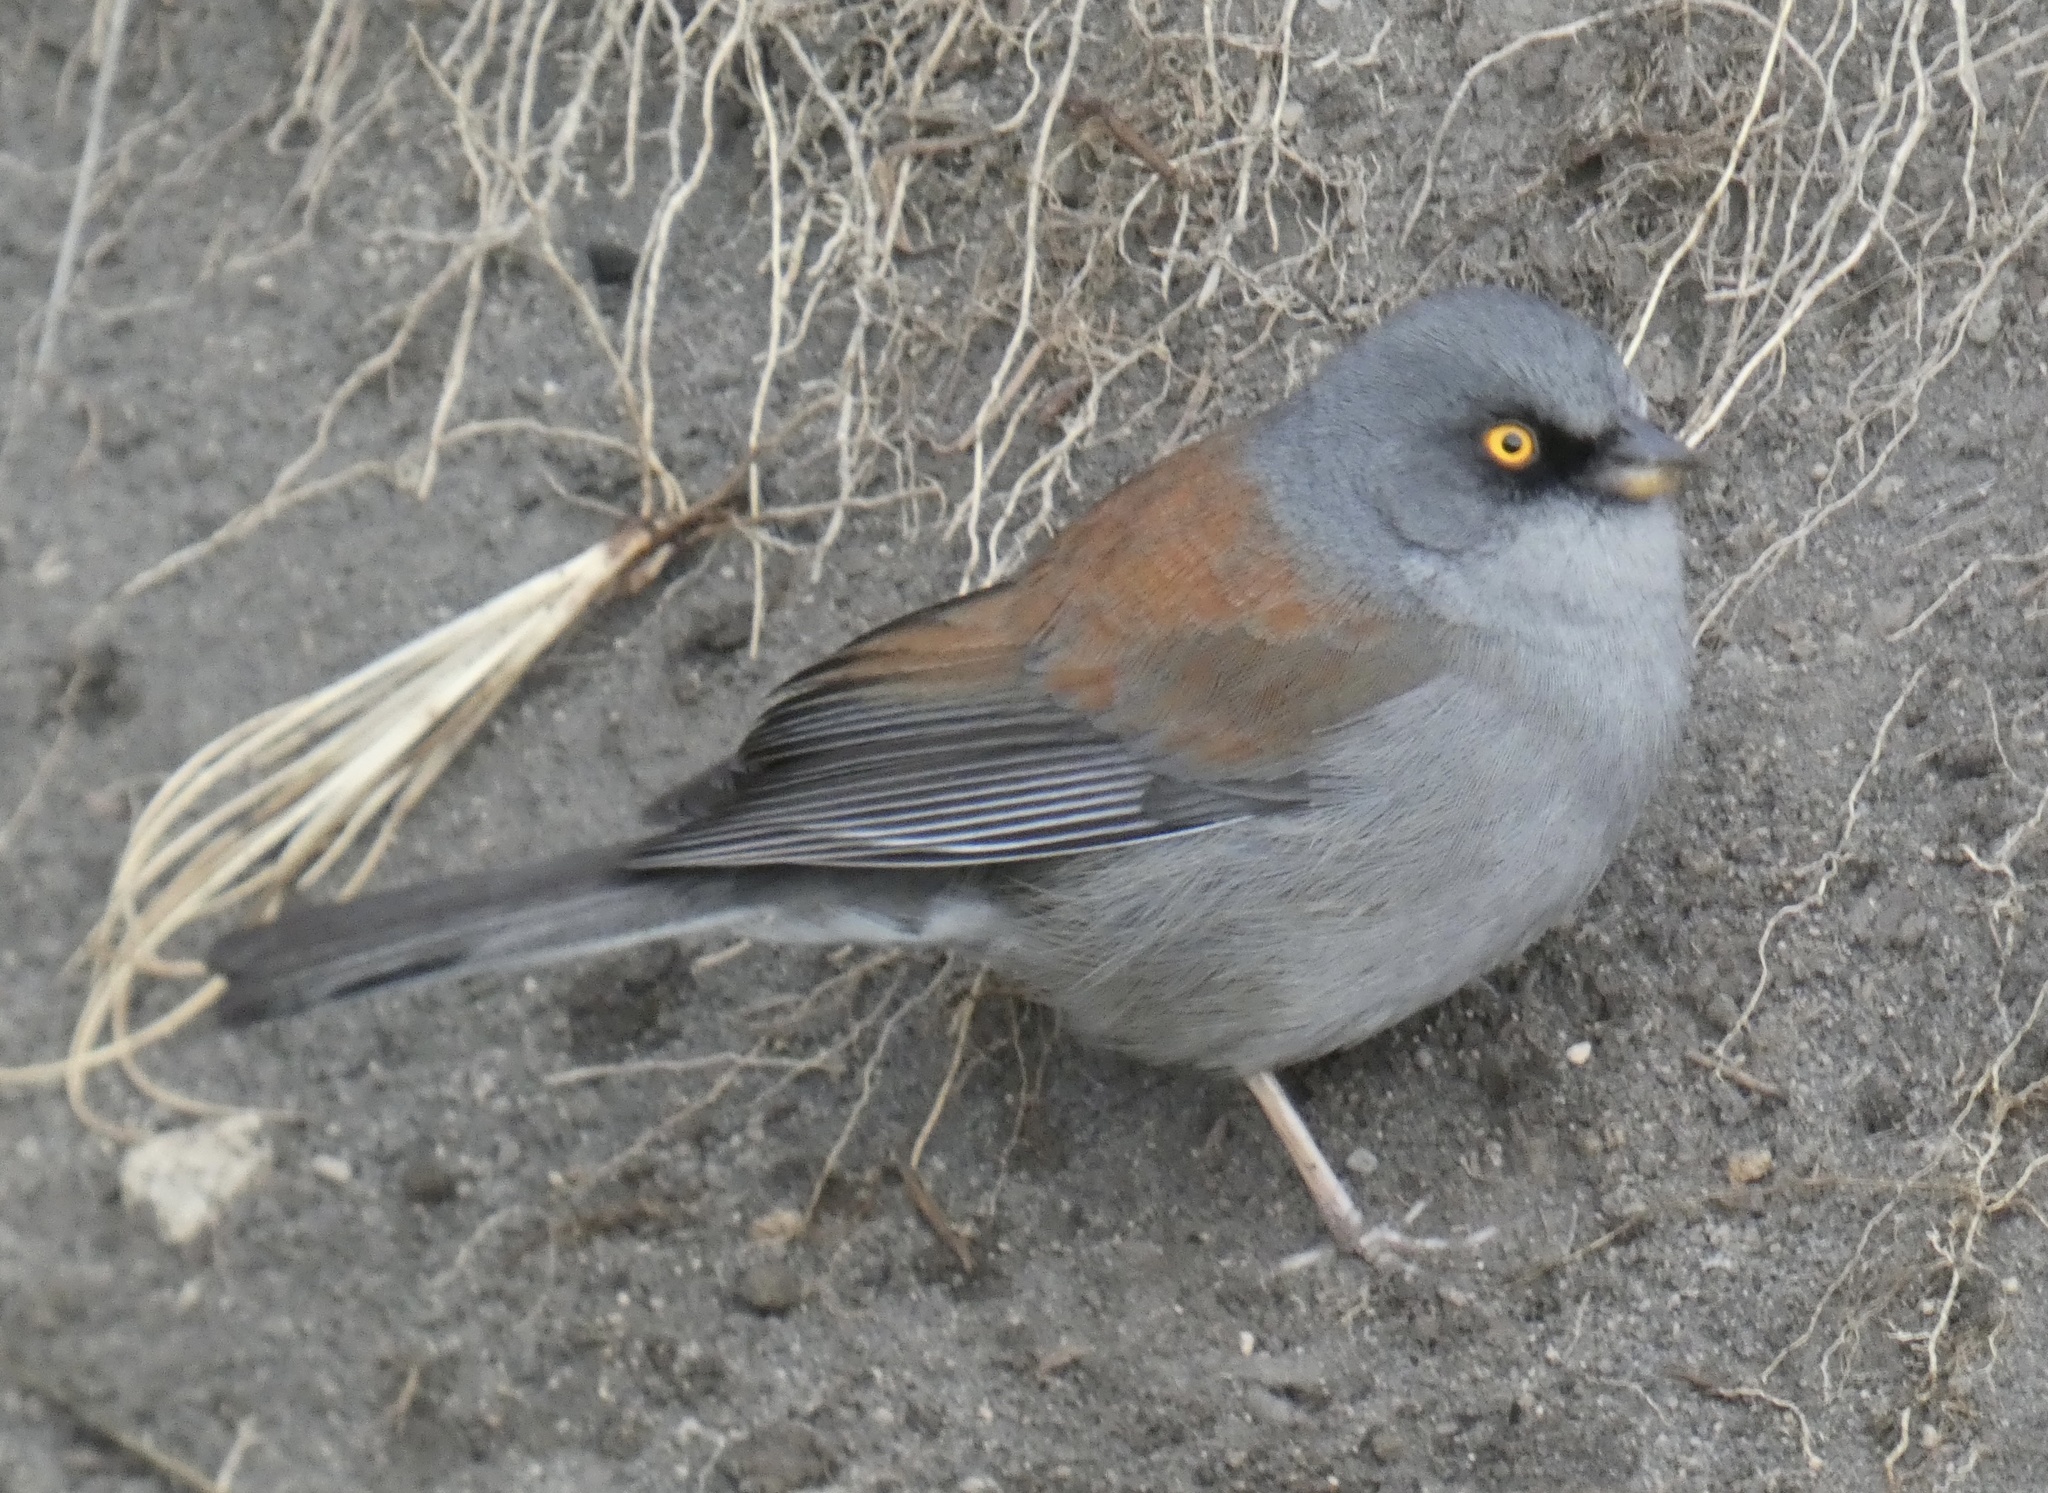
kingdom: Animalia
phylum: Chordata
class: Aves
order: Passeriformes
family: Passerellidae
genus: Junco
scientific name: Junco phaeonotus
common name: Yellow-eyed junco
